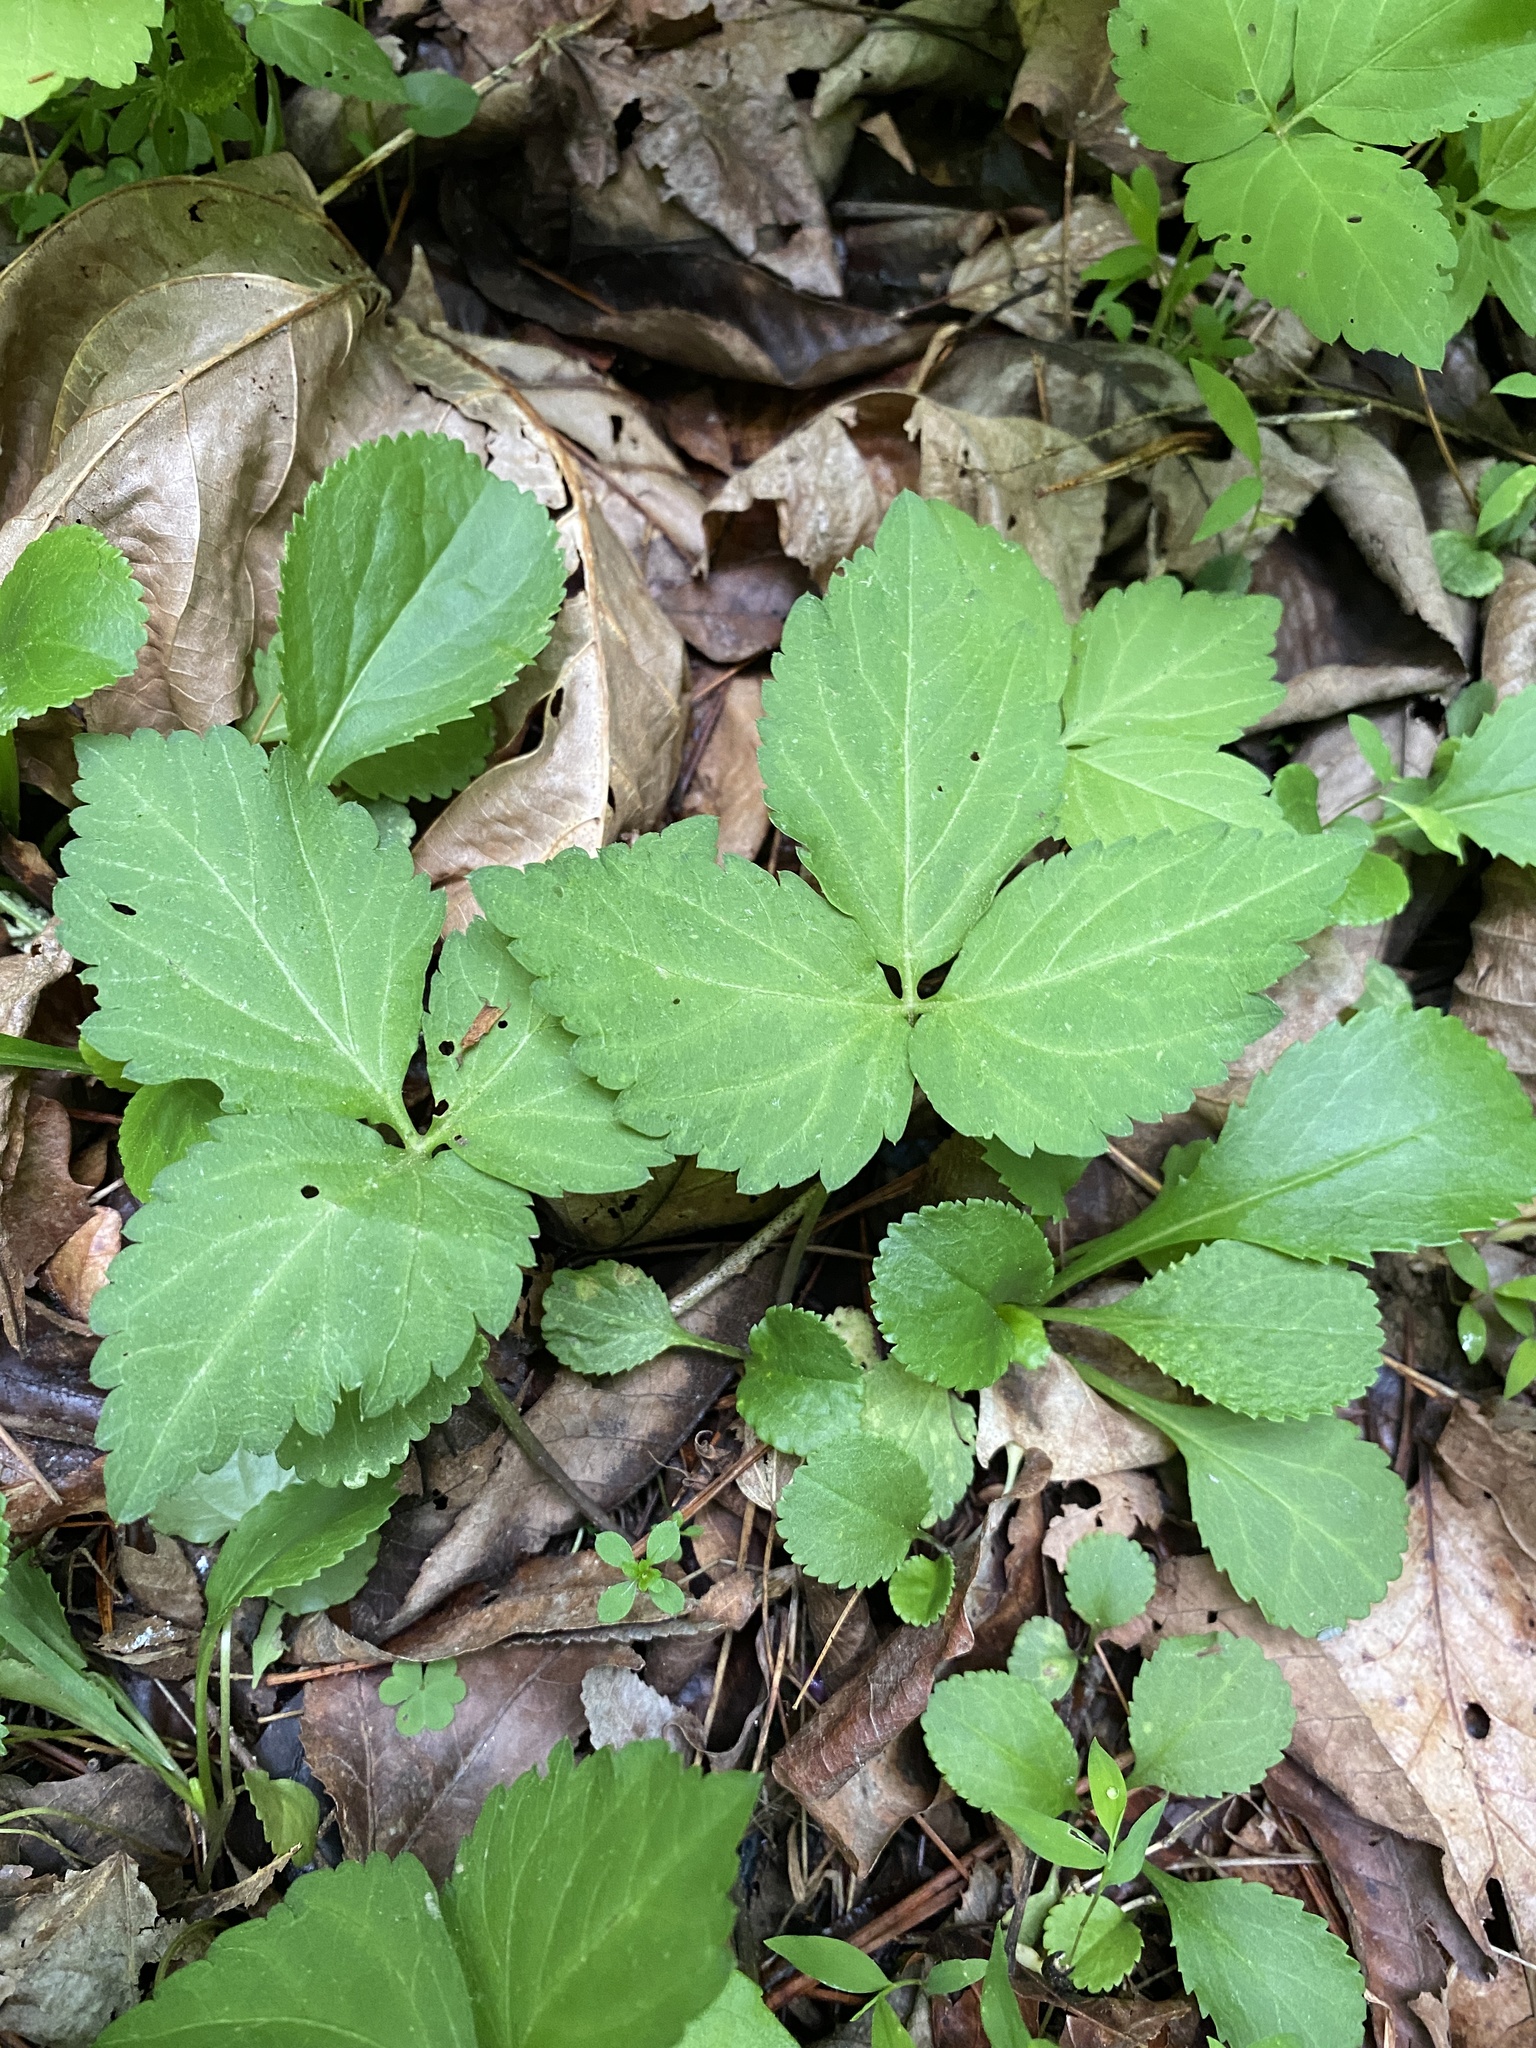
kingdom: Plantae
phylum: Tracheophyta
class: Magnoliopsida
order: Brassicales
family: Brassicaceae
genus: Cardamine
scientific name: Cardamine diphylla
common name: Broad-leaved toothwort
